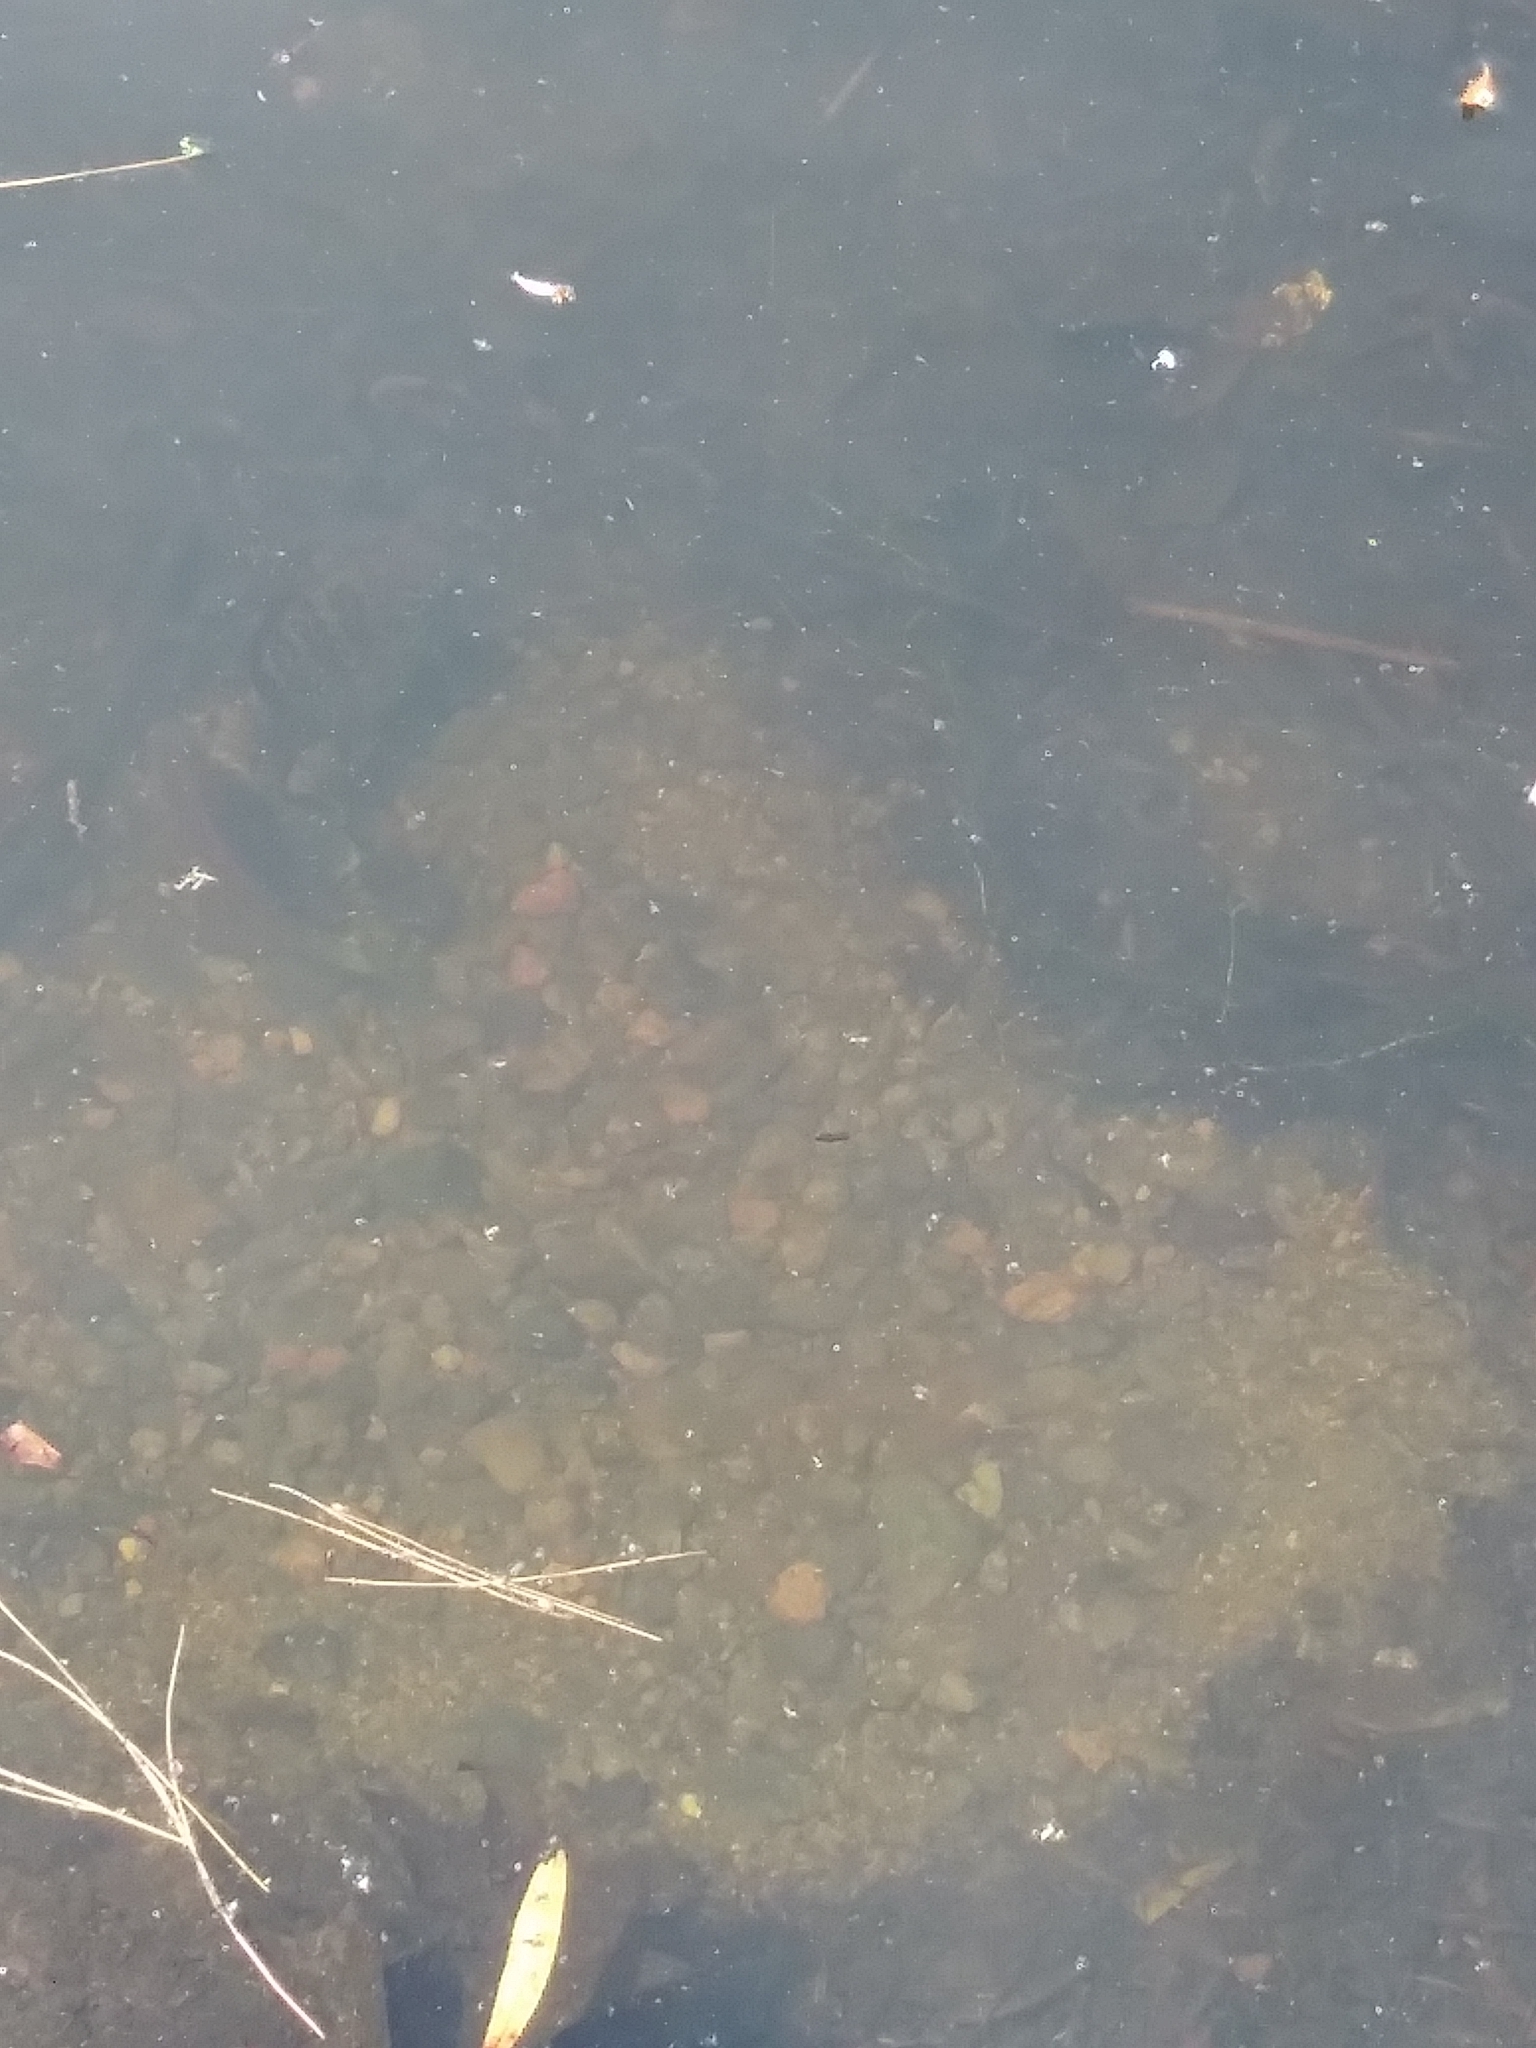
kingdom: Animalia
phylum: Chordata
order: Perciformes
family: Centrarchidae
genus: Lepomis
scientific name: Lepomis
